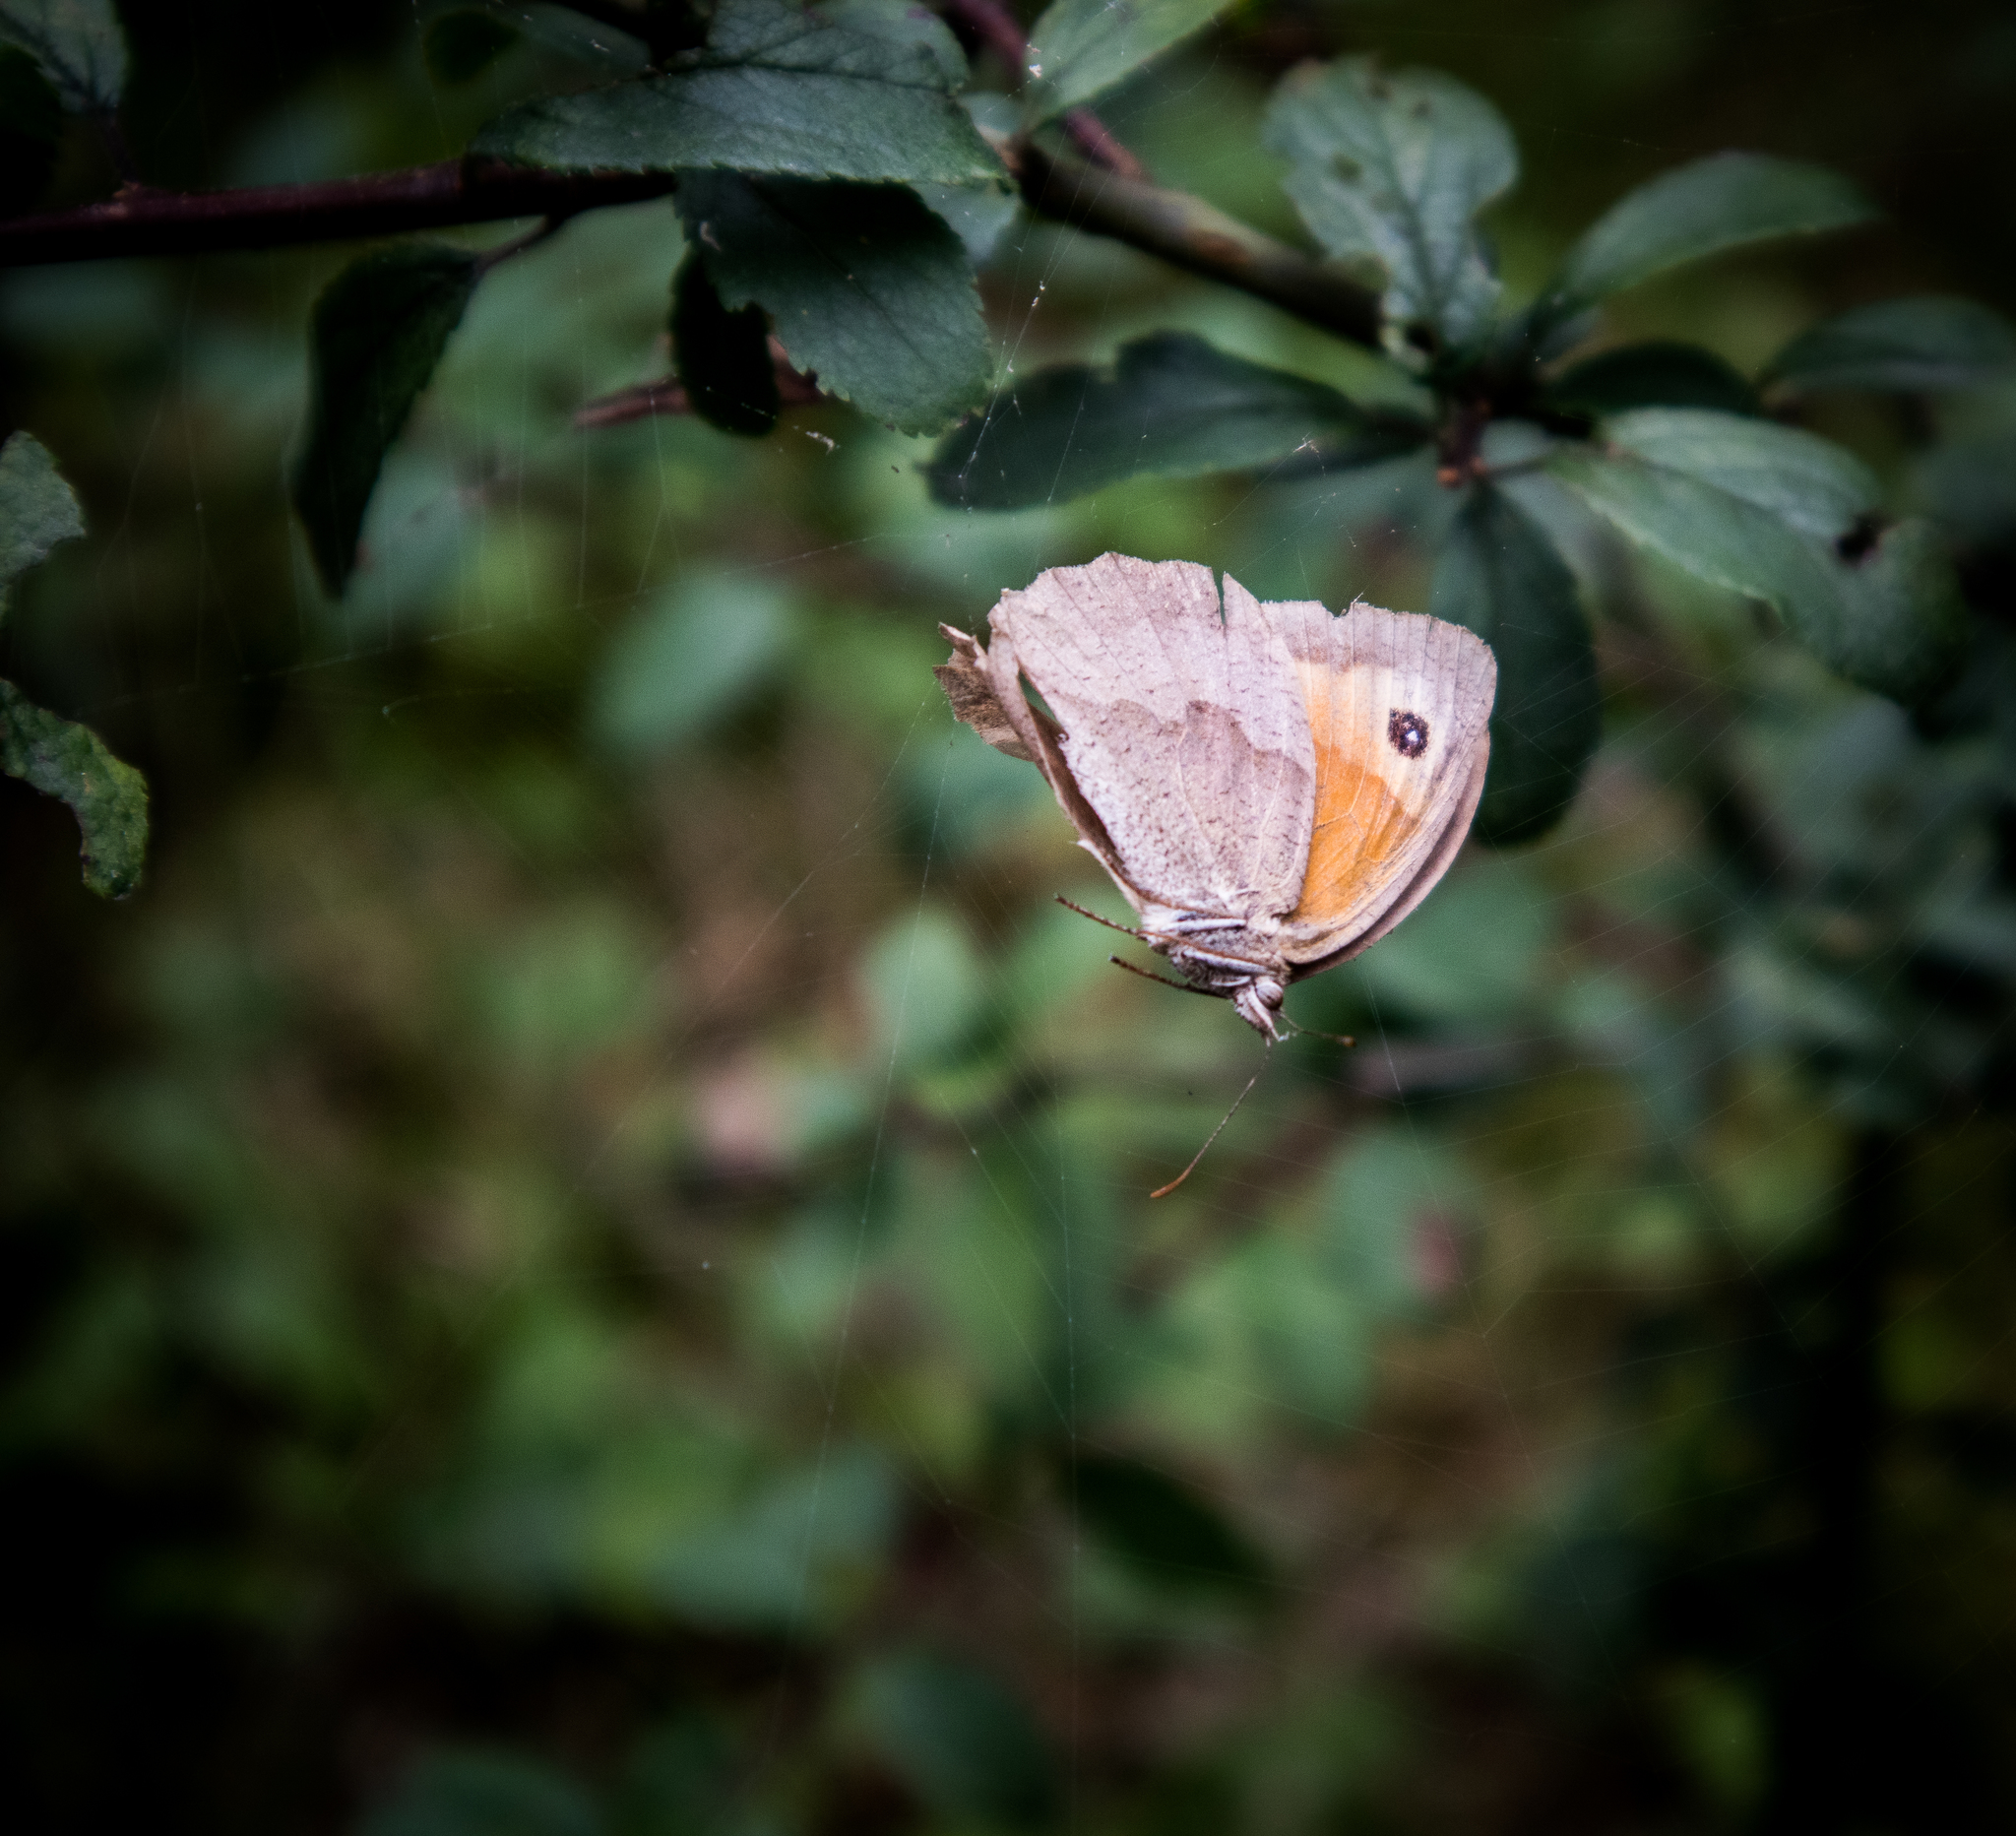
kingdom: Animalia
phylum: Arthropoda
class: Insecta
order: Lepidoptera
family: Nymphalidae
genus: Maniola
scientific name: Maniola jurtina
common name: Meadow brown
